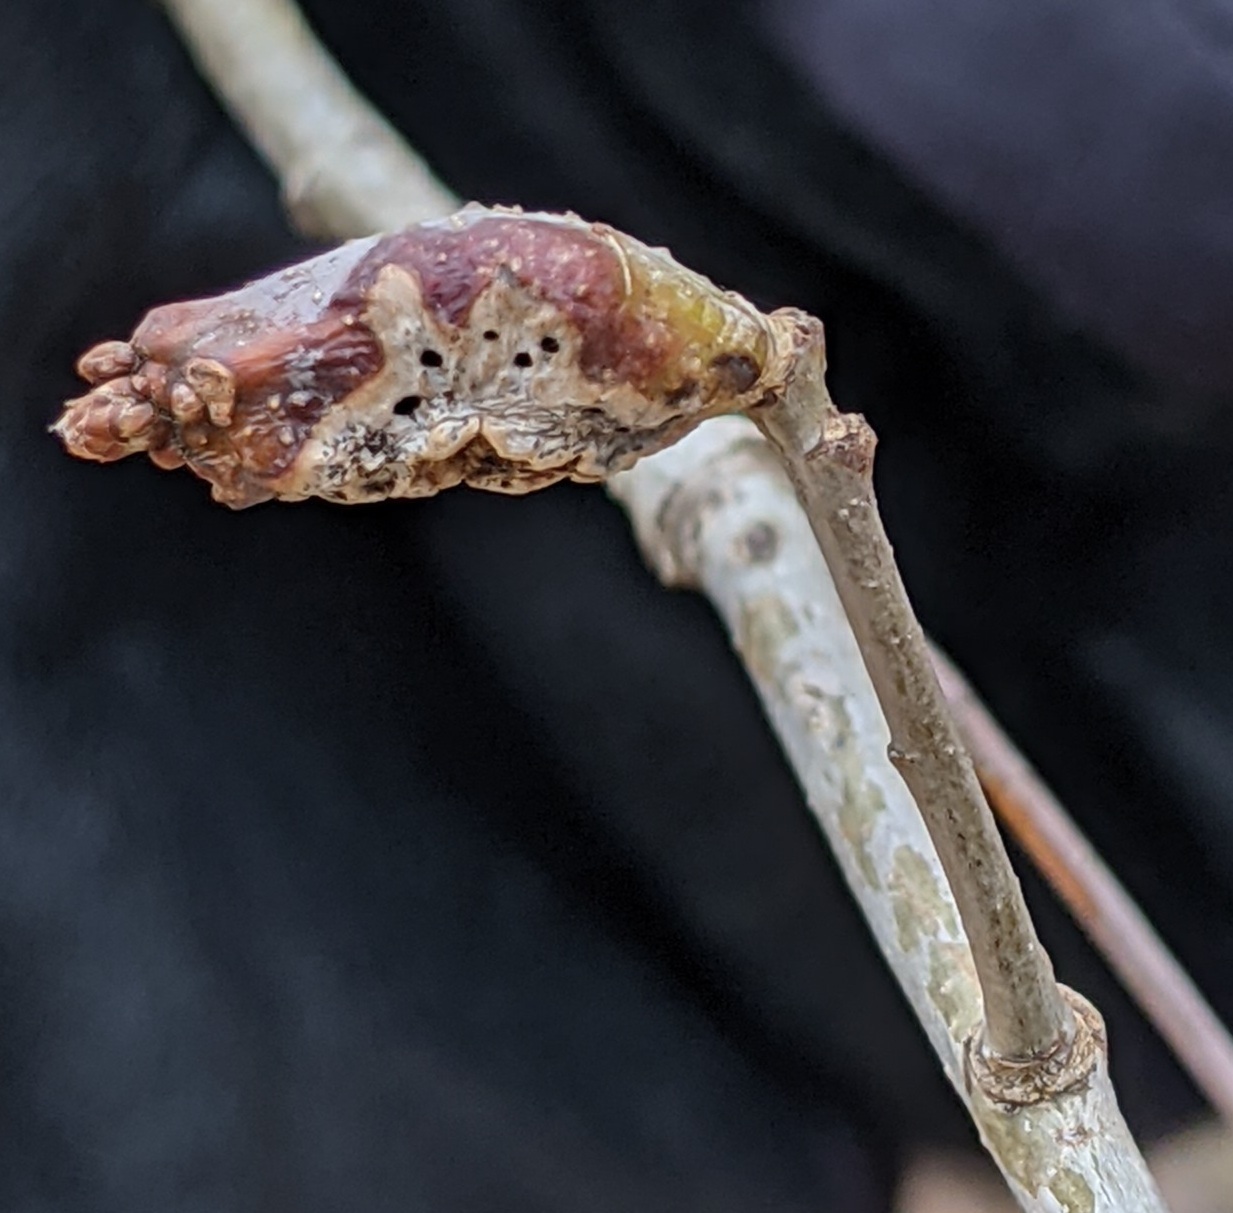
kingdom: Animalia
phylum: Arthropoda
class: Insecta
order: Hymenoptera
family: Cynipidae
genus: Neuroterus
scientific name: Neuroterus quercusbaccarum
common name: Common spangle gall
